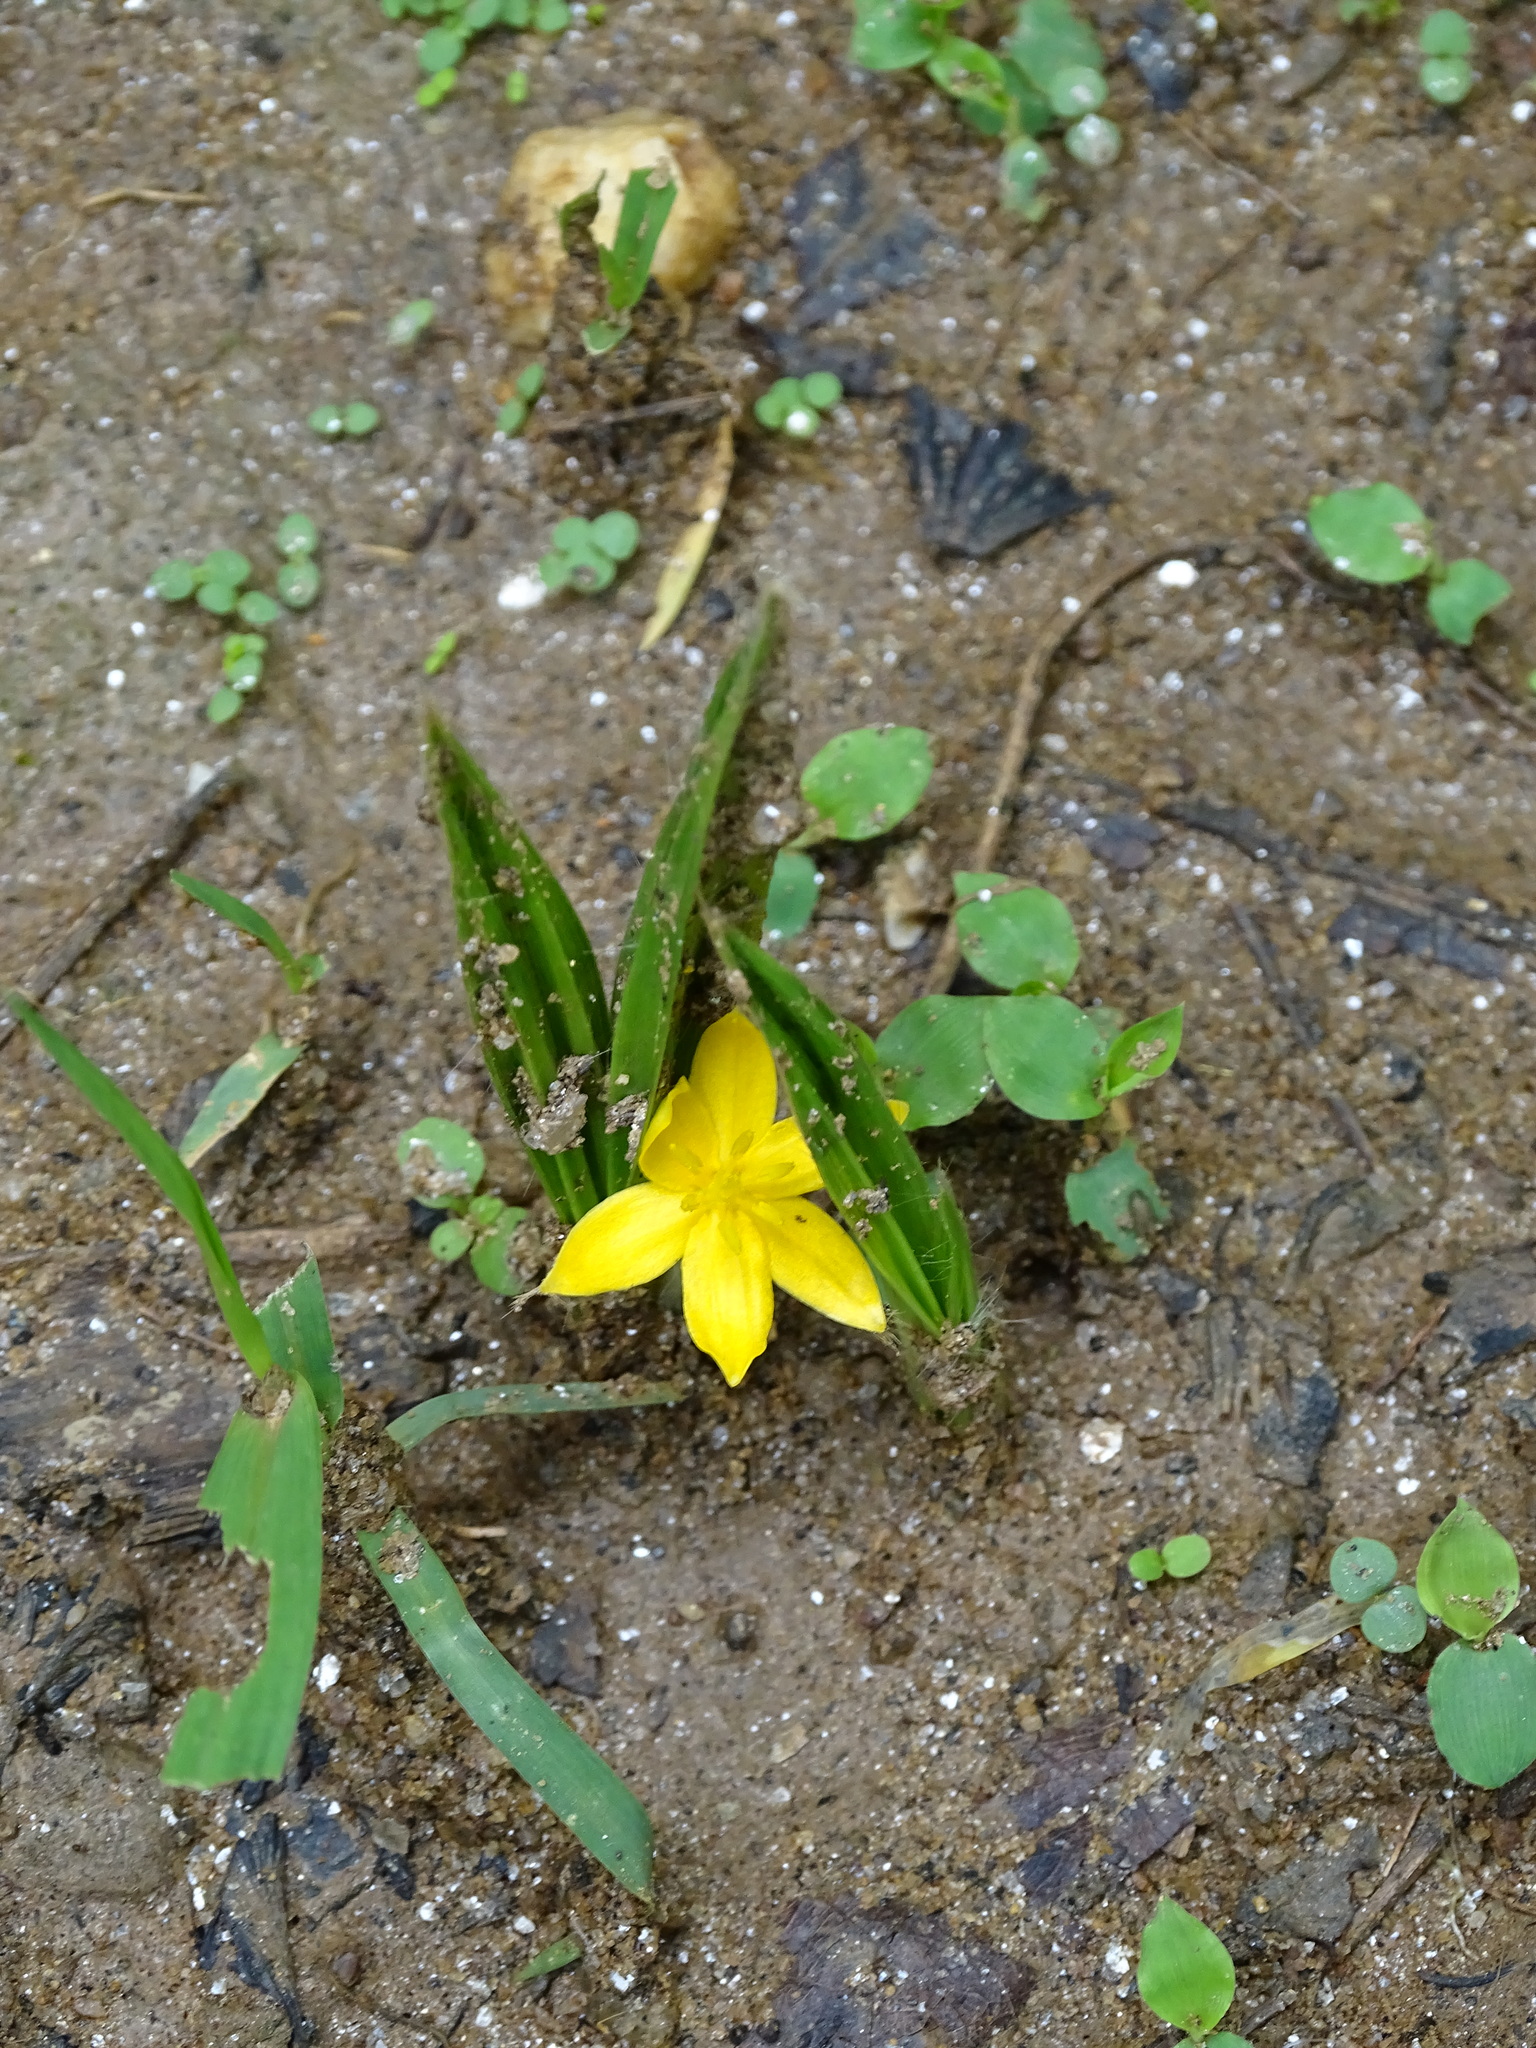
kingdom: Plantae
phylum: Tracheophyta
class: Liliopsida
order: Asparagales
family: Hypoxidaceae
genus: Curculigo
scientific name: Curculigo orchioides
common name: Golden eye-grass
